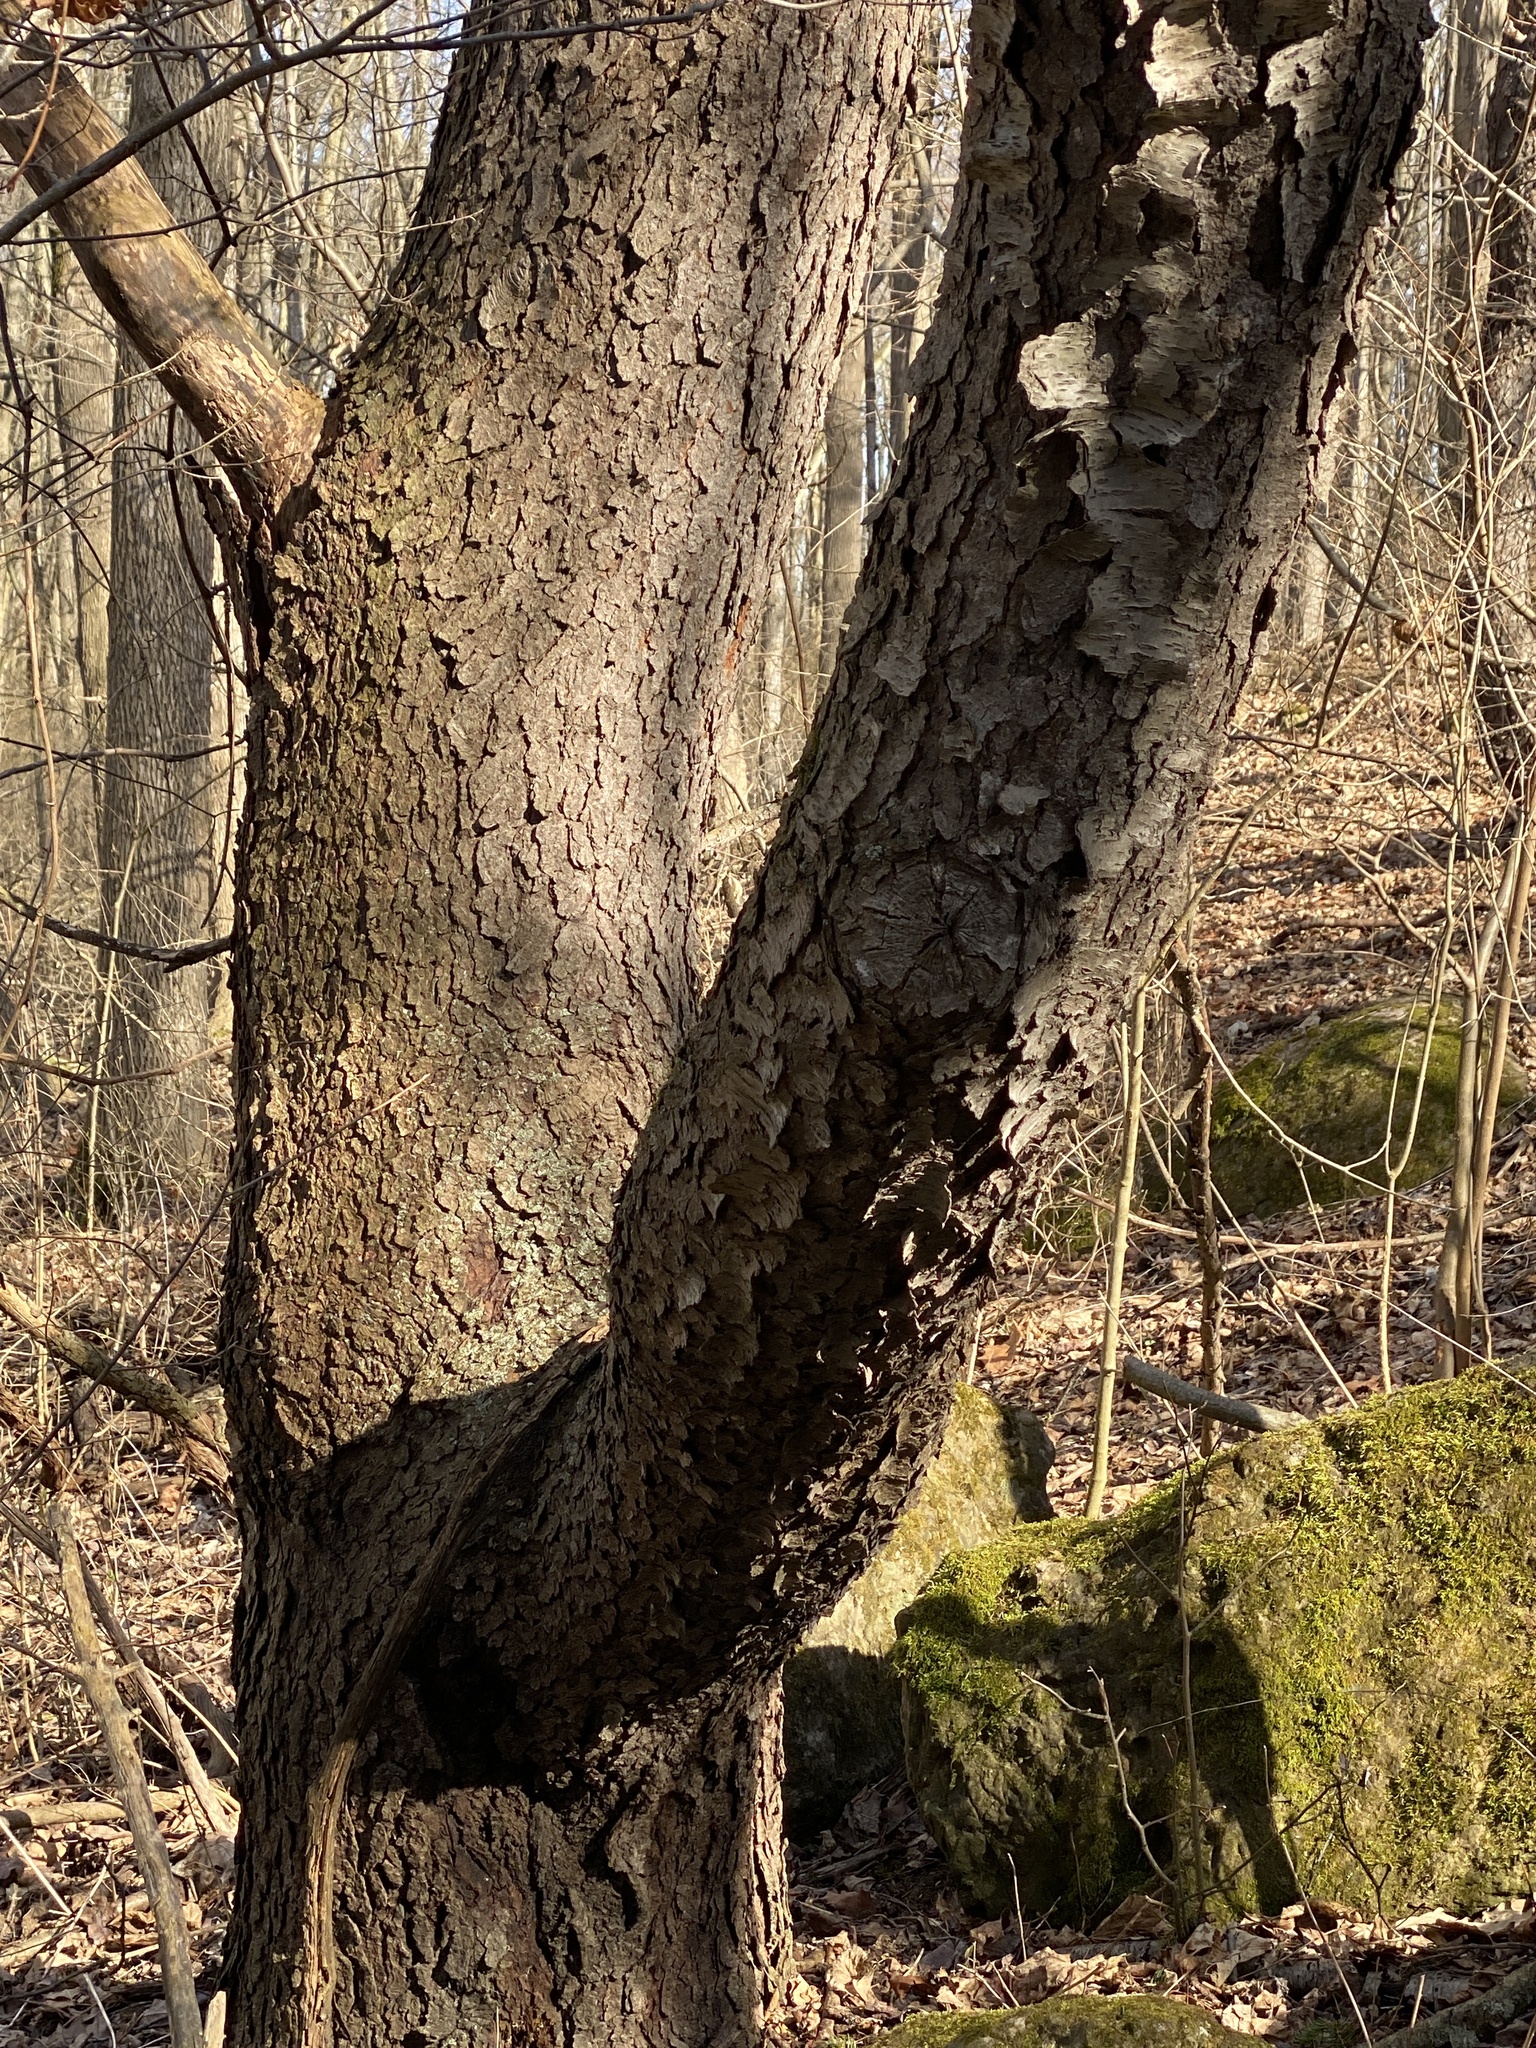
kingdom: Plantae
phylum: Tracheophyta
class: Magnoliopsida
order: Rosales
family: Rosaceae
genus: Prunus
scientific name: Prunus serotina
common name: Black cherry
